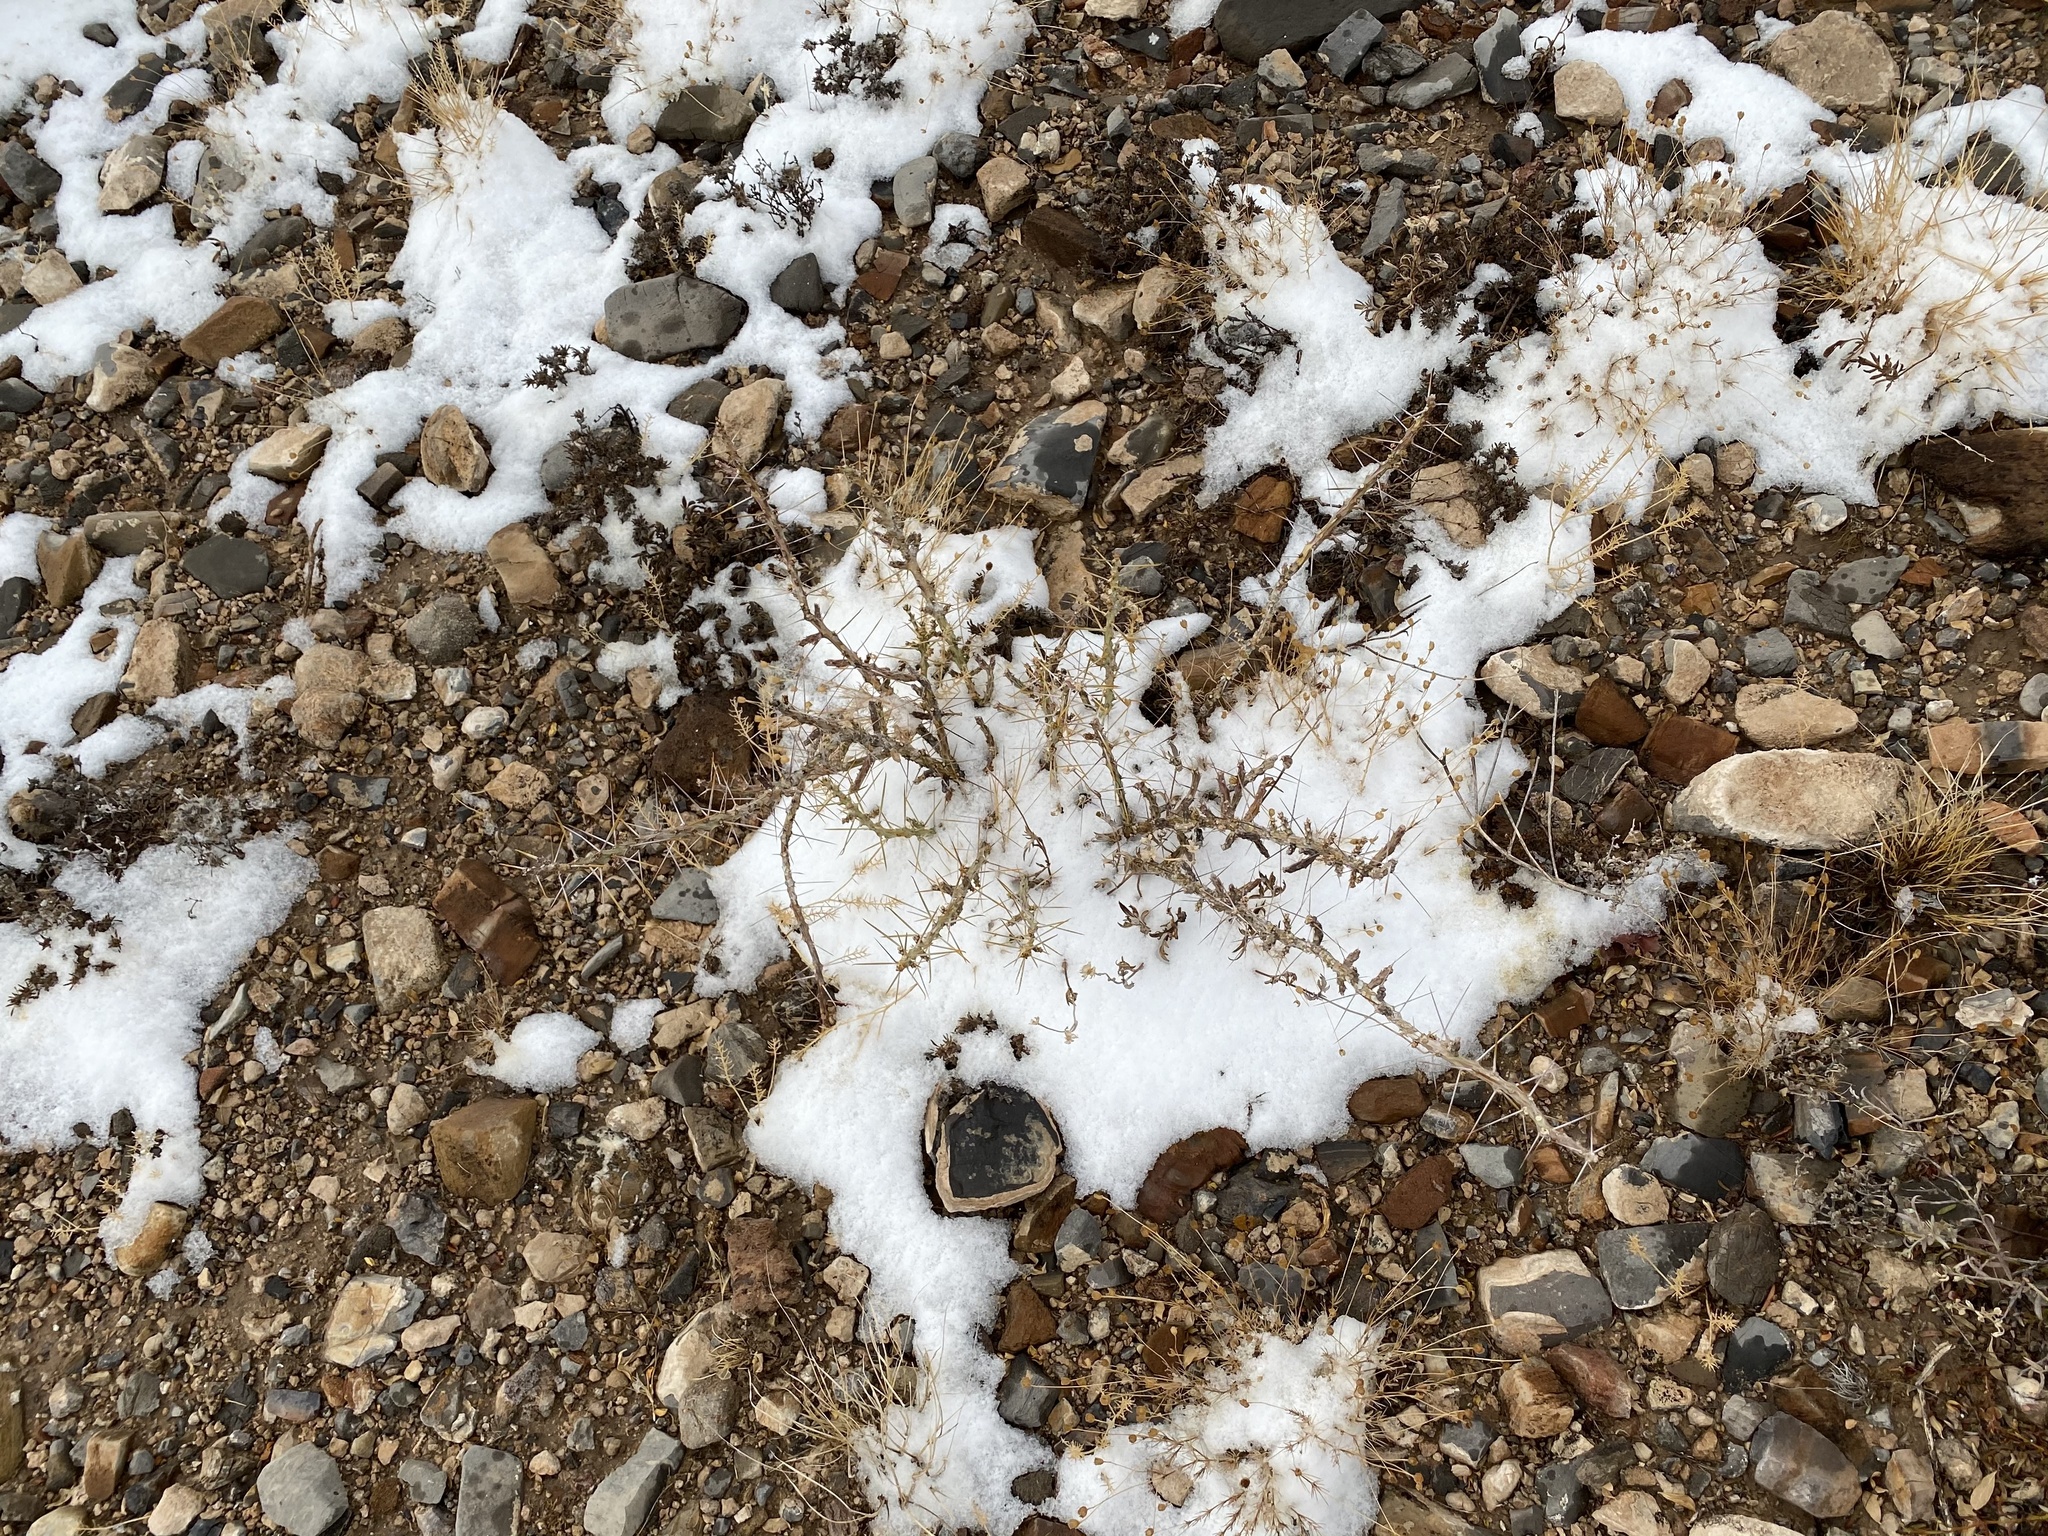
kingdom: Plantae
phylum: Tracheophyta
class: Magnoliopsida
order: Caryophyllales
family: Cactaceae
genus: Cylindropuntia
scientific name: Cylindropuntia leptocaulis
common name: Christmas cactus
